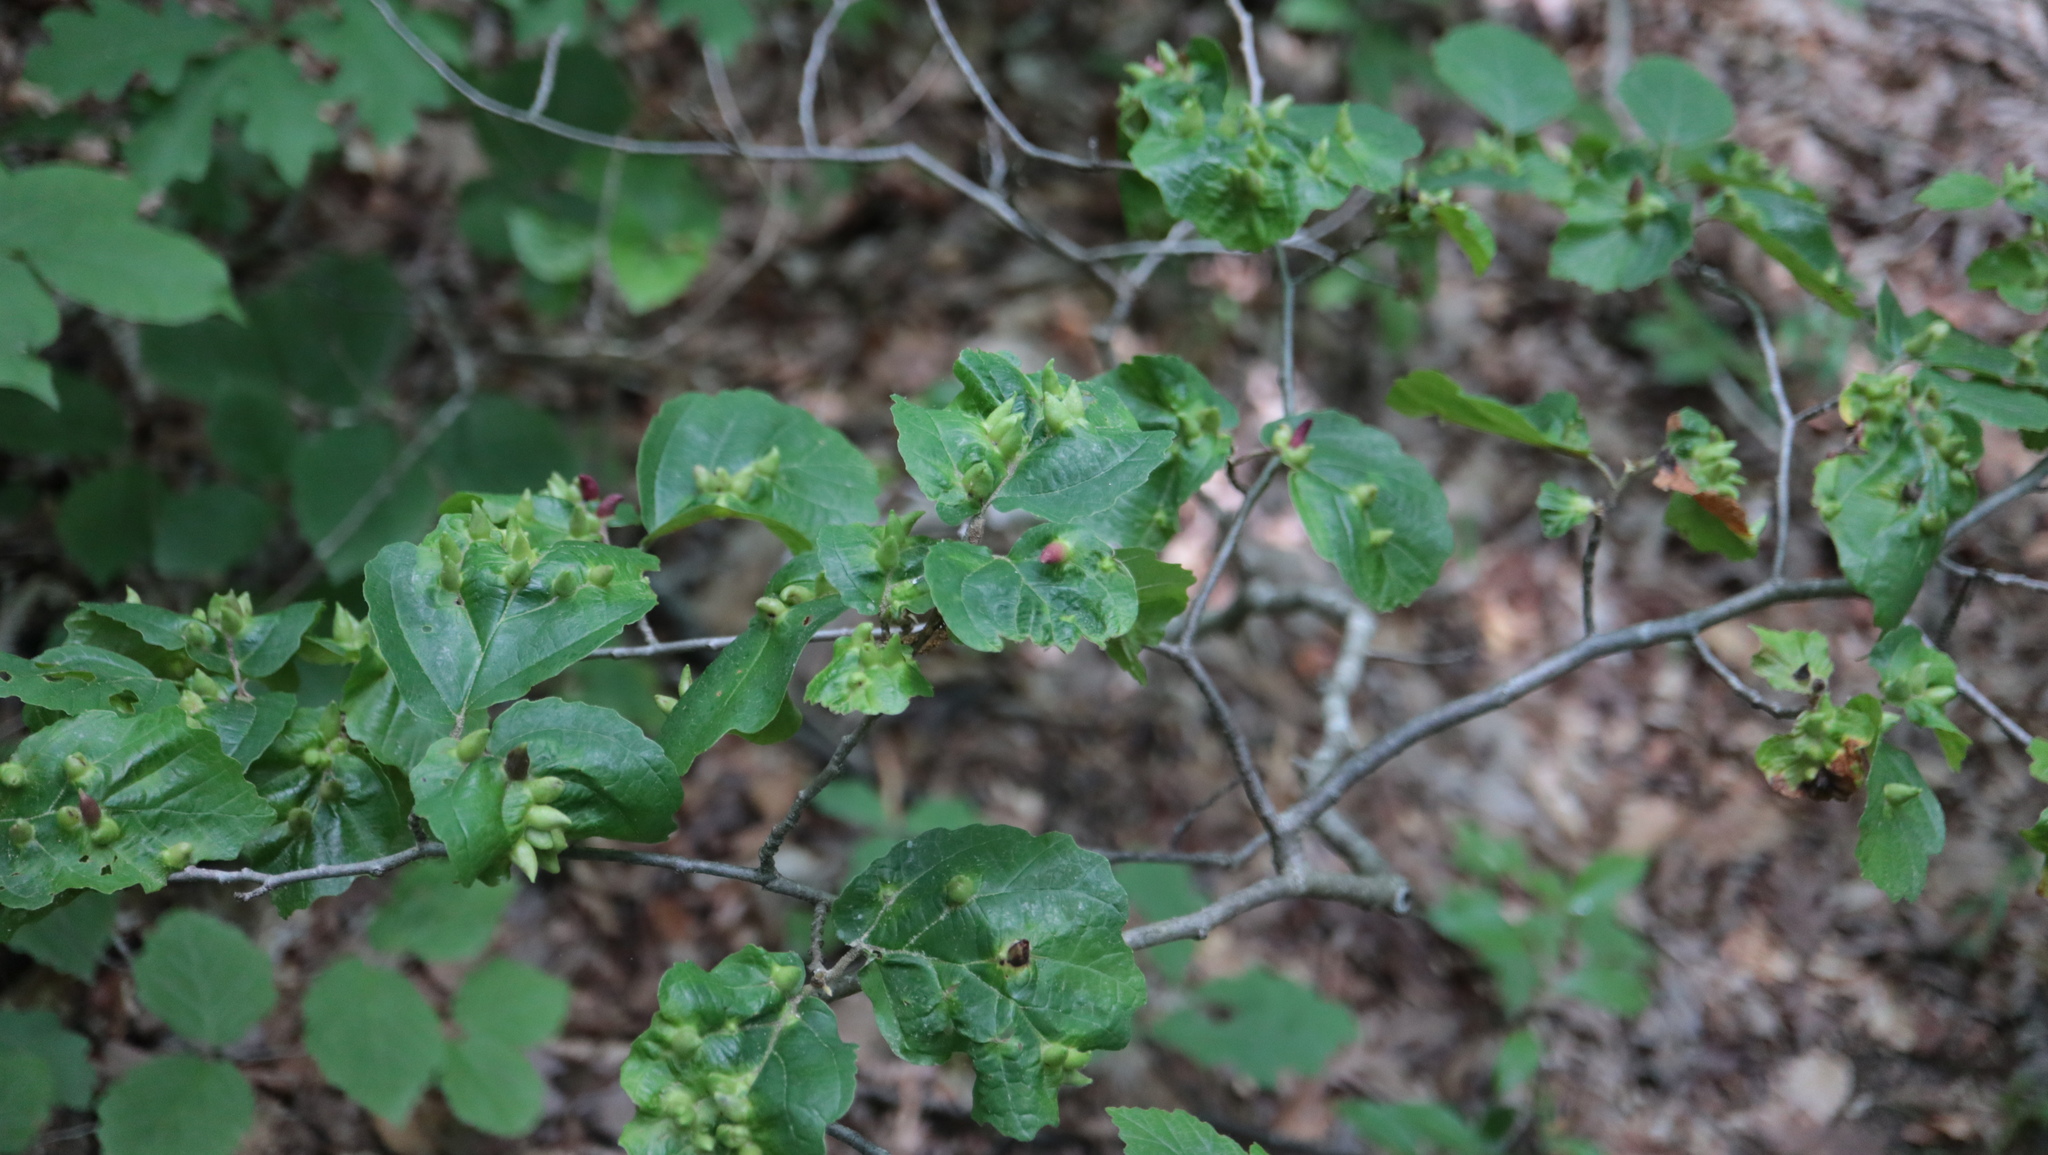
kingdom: Animalia
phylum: Arthropoda
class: Insecta
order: Hemiptera
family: Aphididae
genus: Hormaphis
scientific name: Hormaphis hamamelidis
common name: Witch-hazel cone gall aphid
